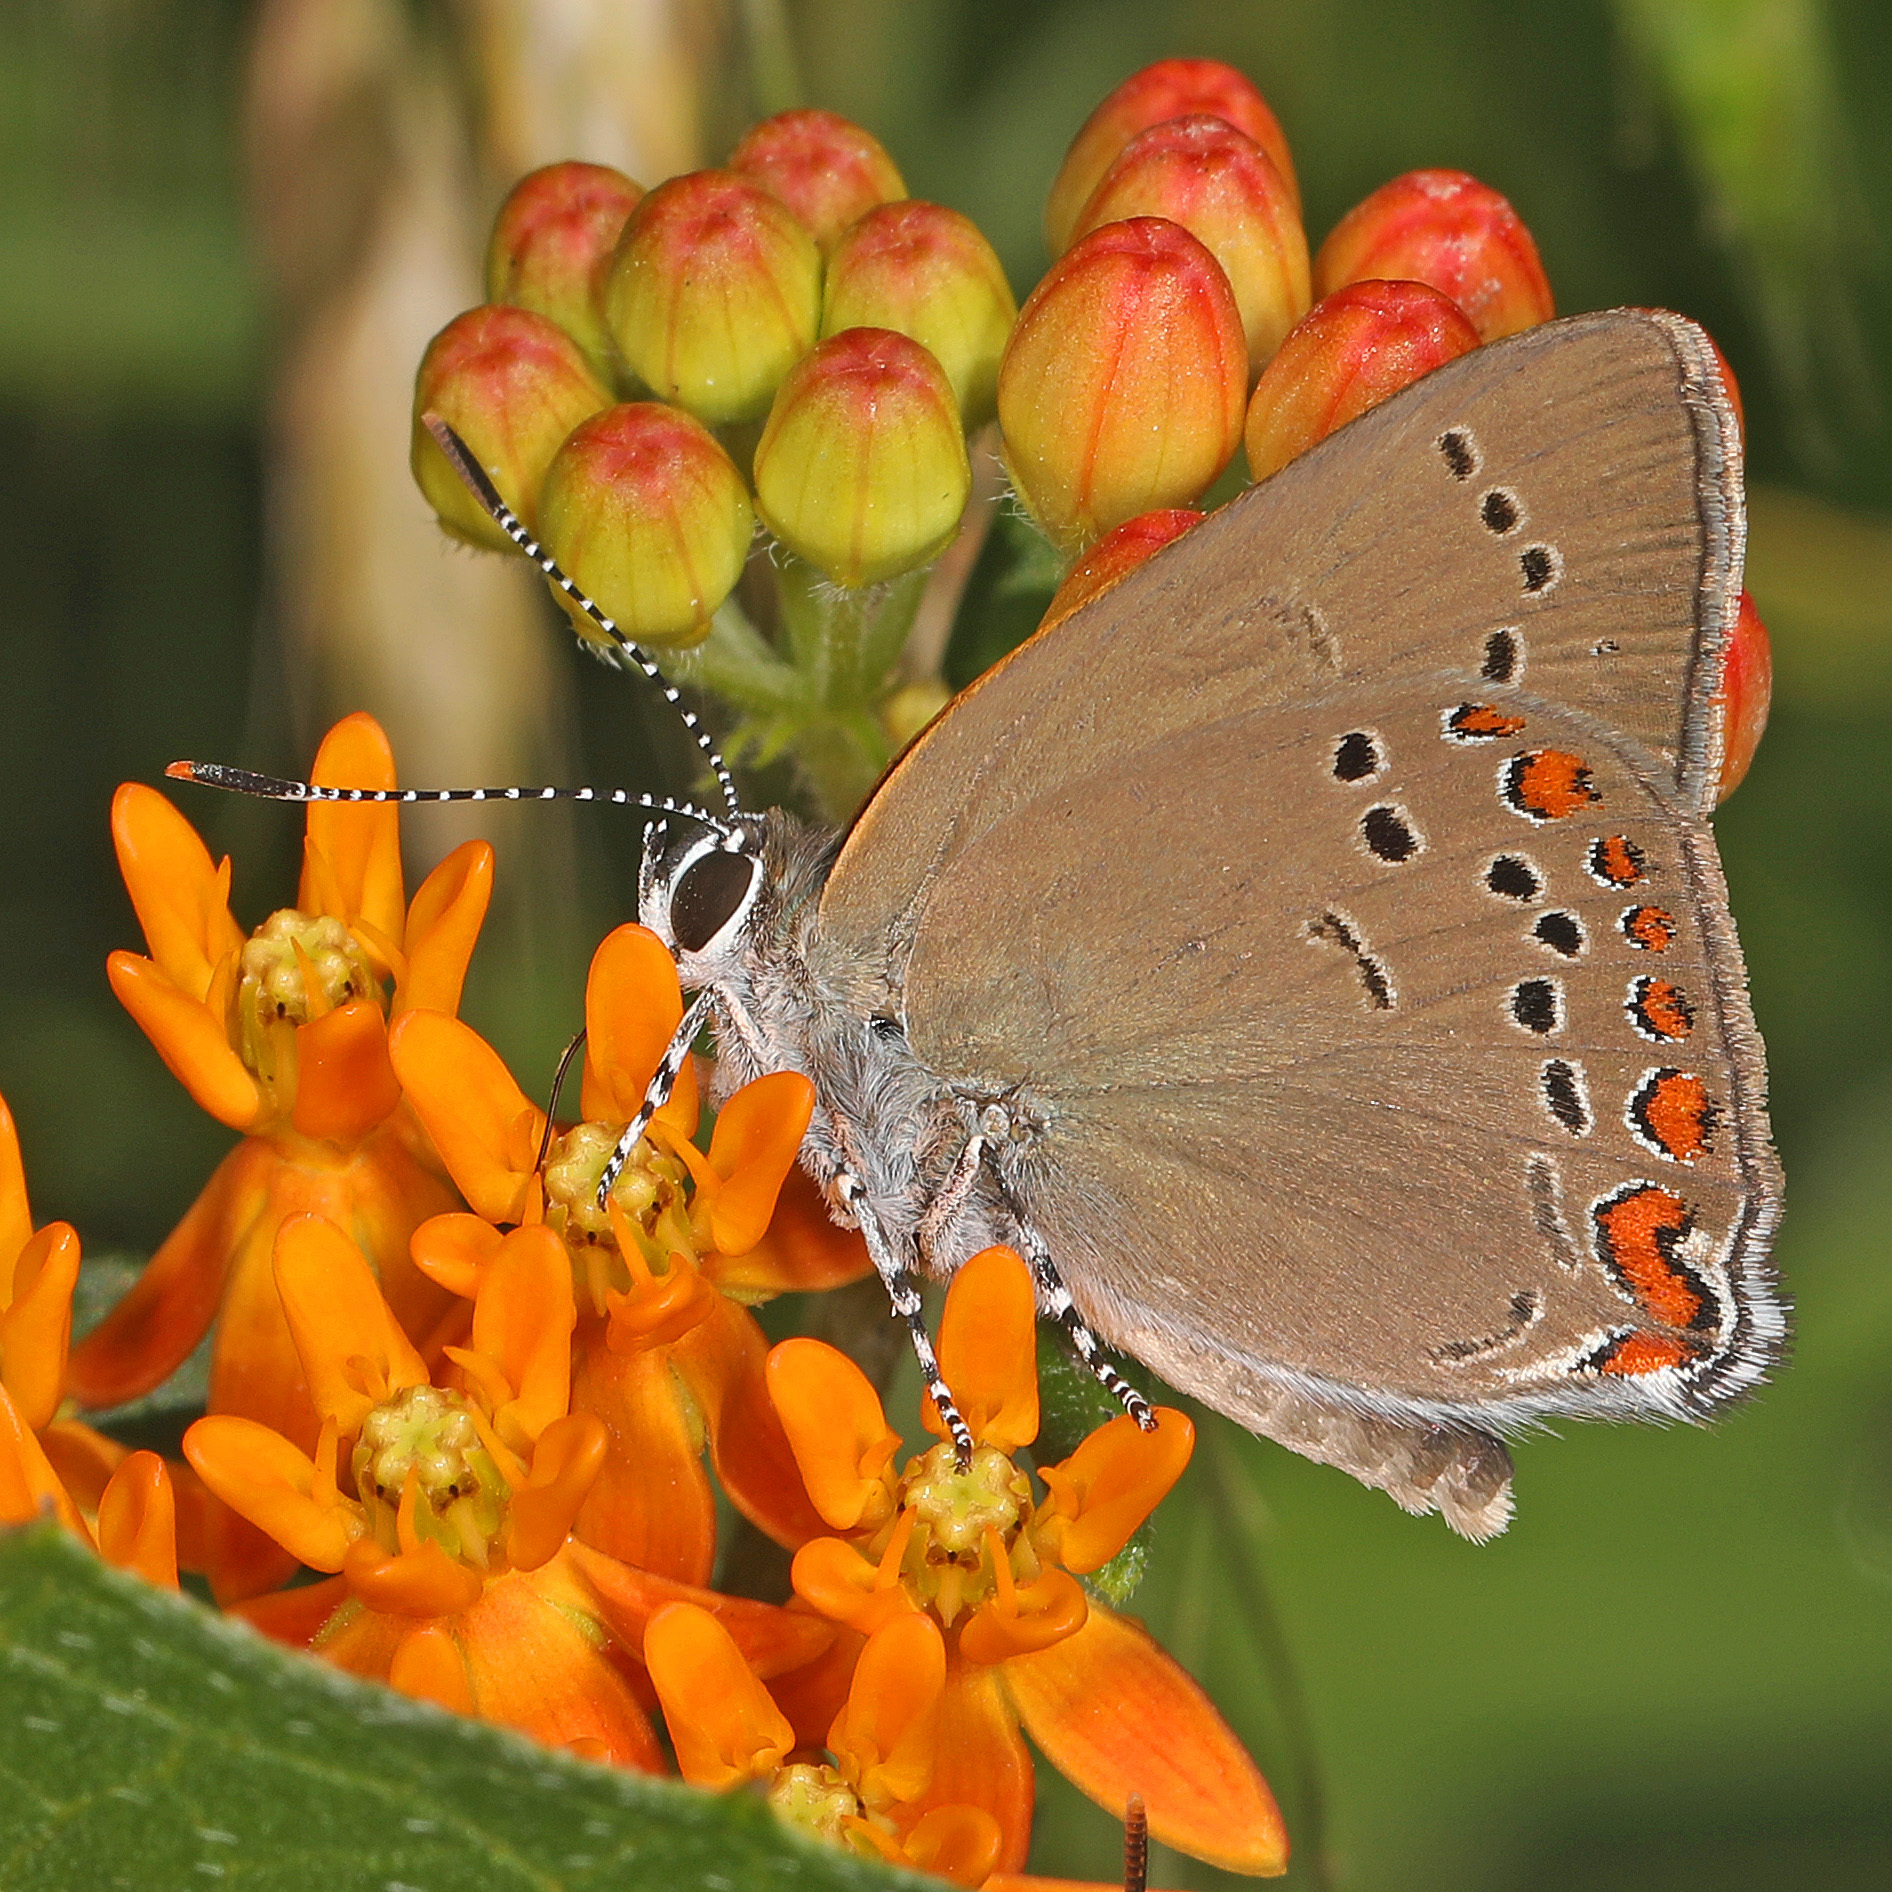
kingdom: Animalia
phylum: Arthropoda
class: Insecta
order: Lepidoptera
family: Lycaenidae
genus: Harkenclenus
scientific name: Harkenclenus titus
